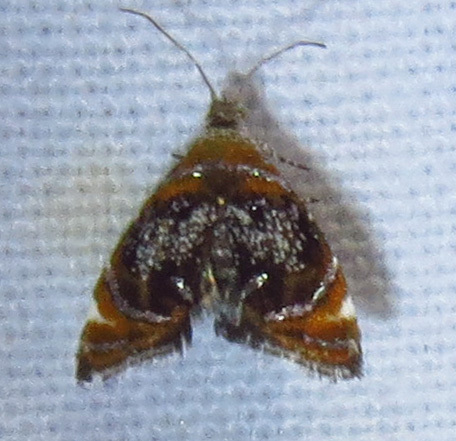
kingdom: Animalia
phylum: Arthropoda
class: Insecta
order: Lepidoptera
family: Choreutidae
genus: Prochoreutis
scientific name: Prochoreutis inflatella
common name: Skullcap skeletonizer moth
